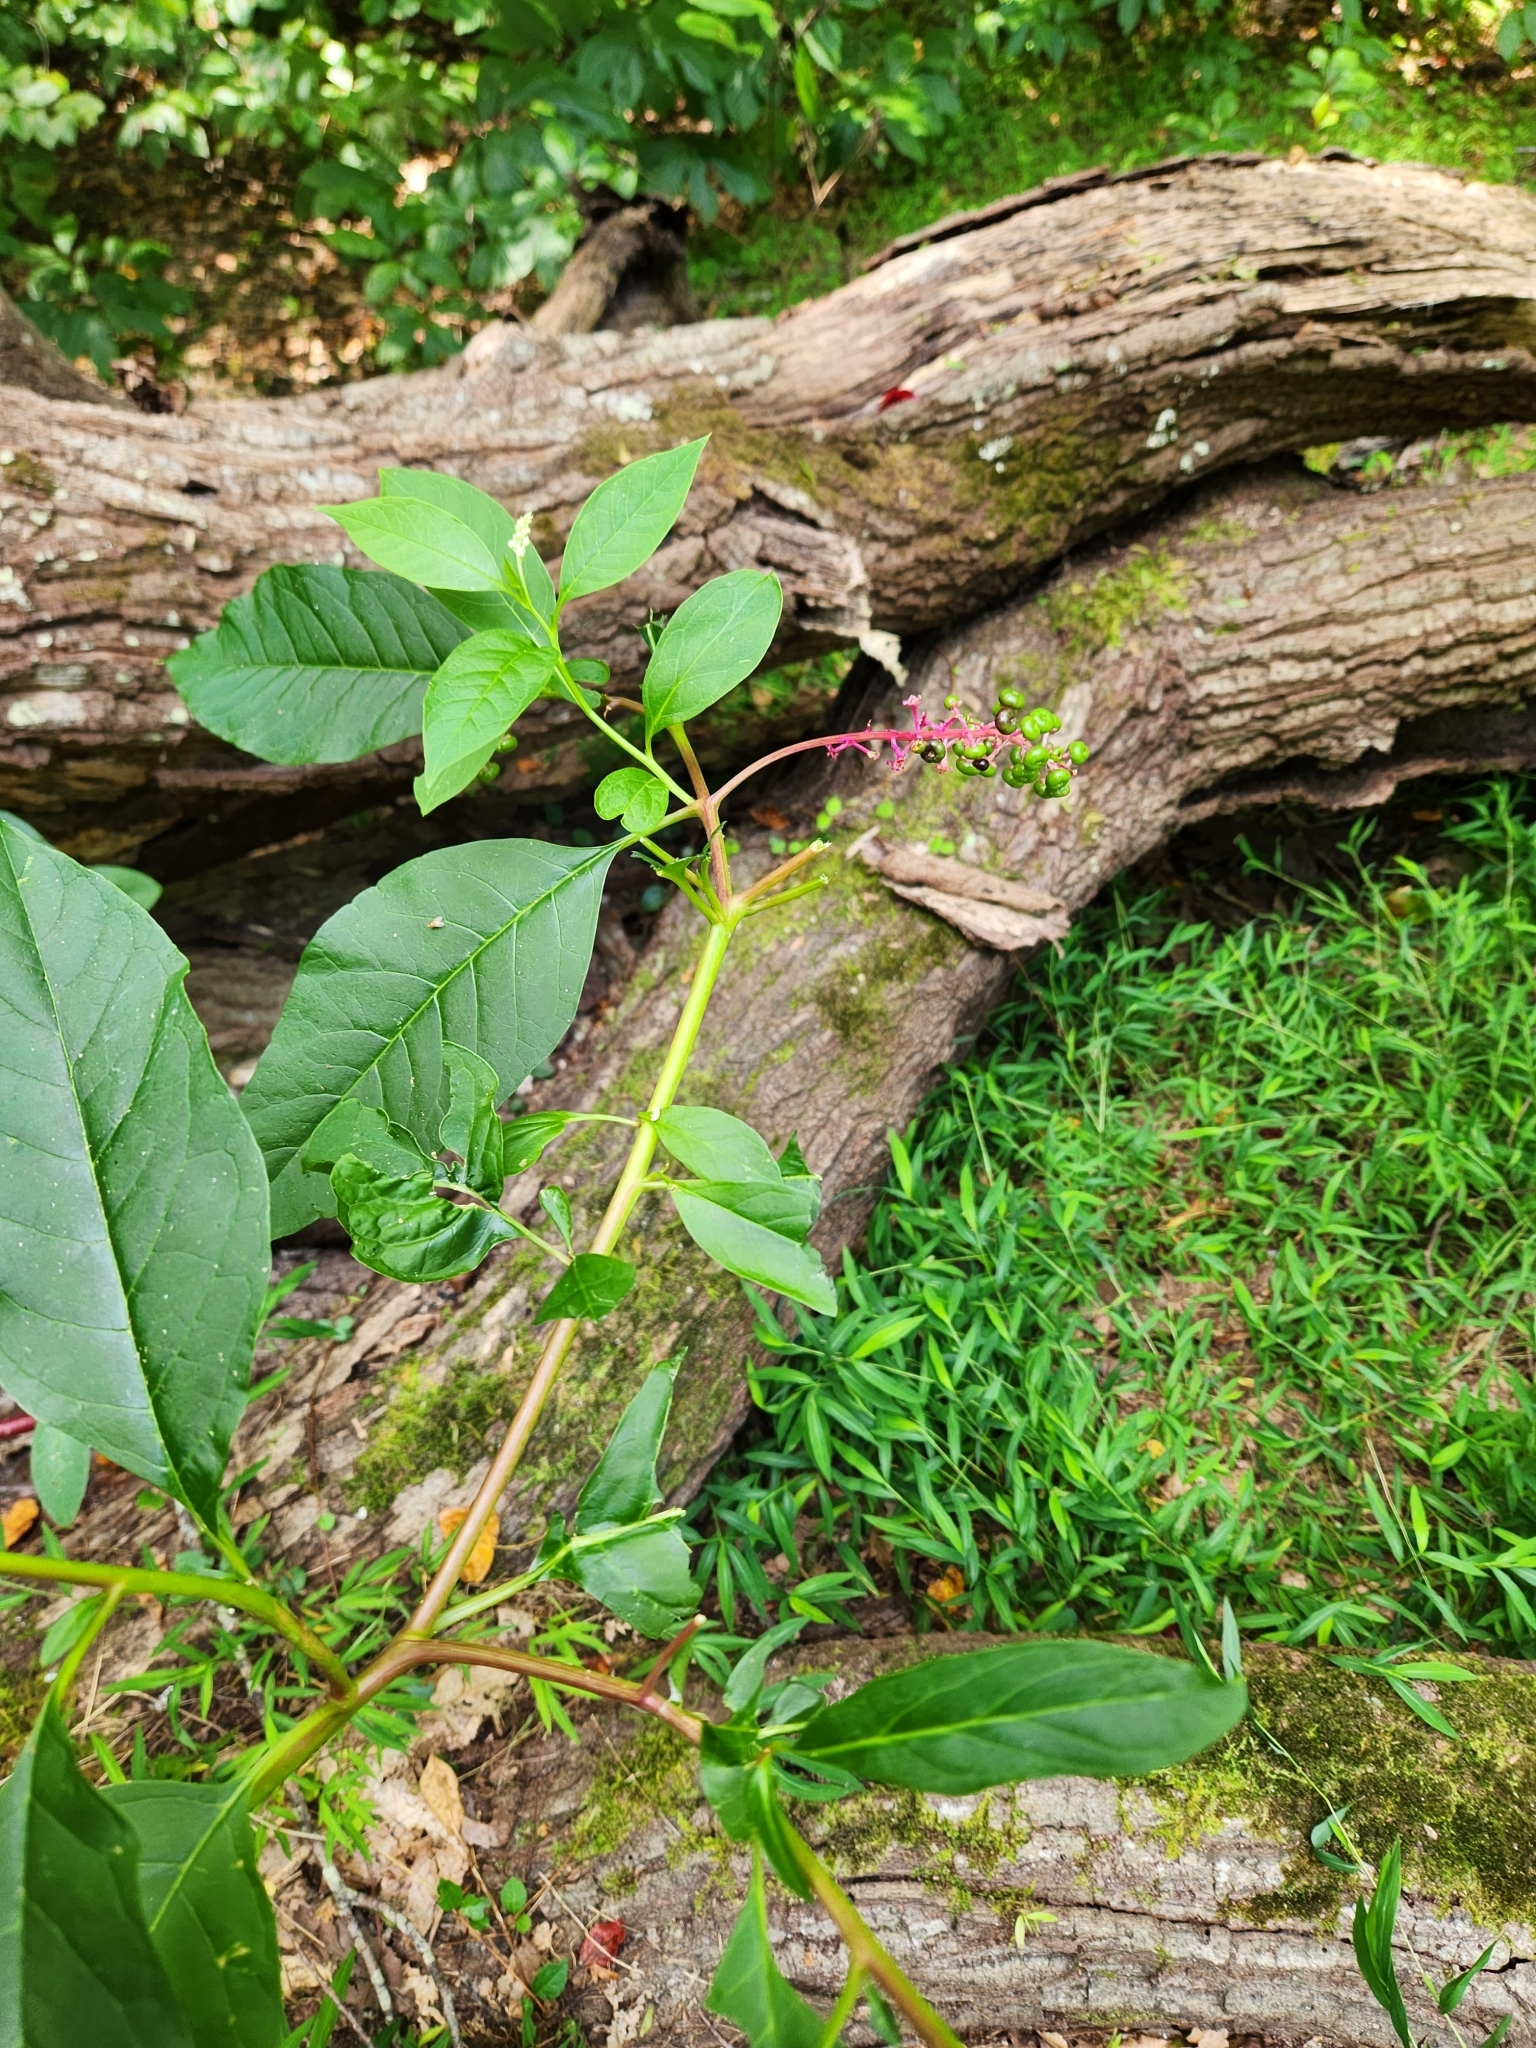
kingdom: Plantae
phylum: Tracheophyta
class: Magnoliopsida
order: Caryophyllales
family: Phytolaccaceae
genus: Phytolacca
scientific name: Phytolacca americana
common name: American pokeweed
